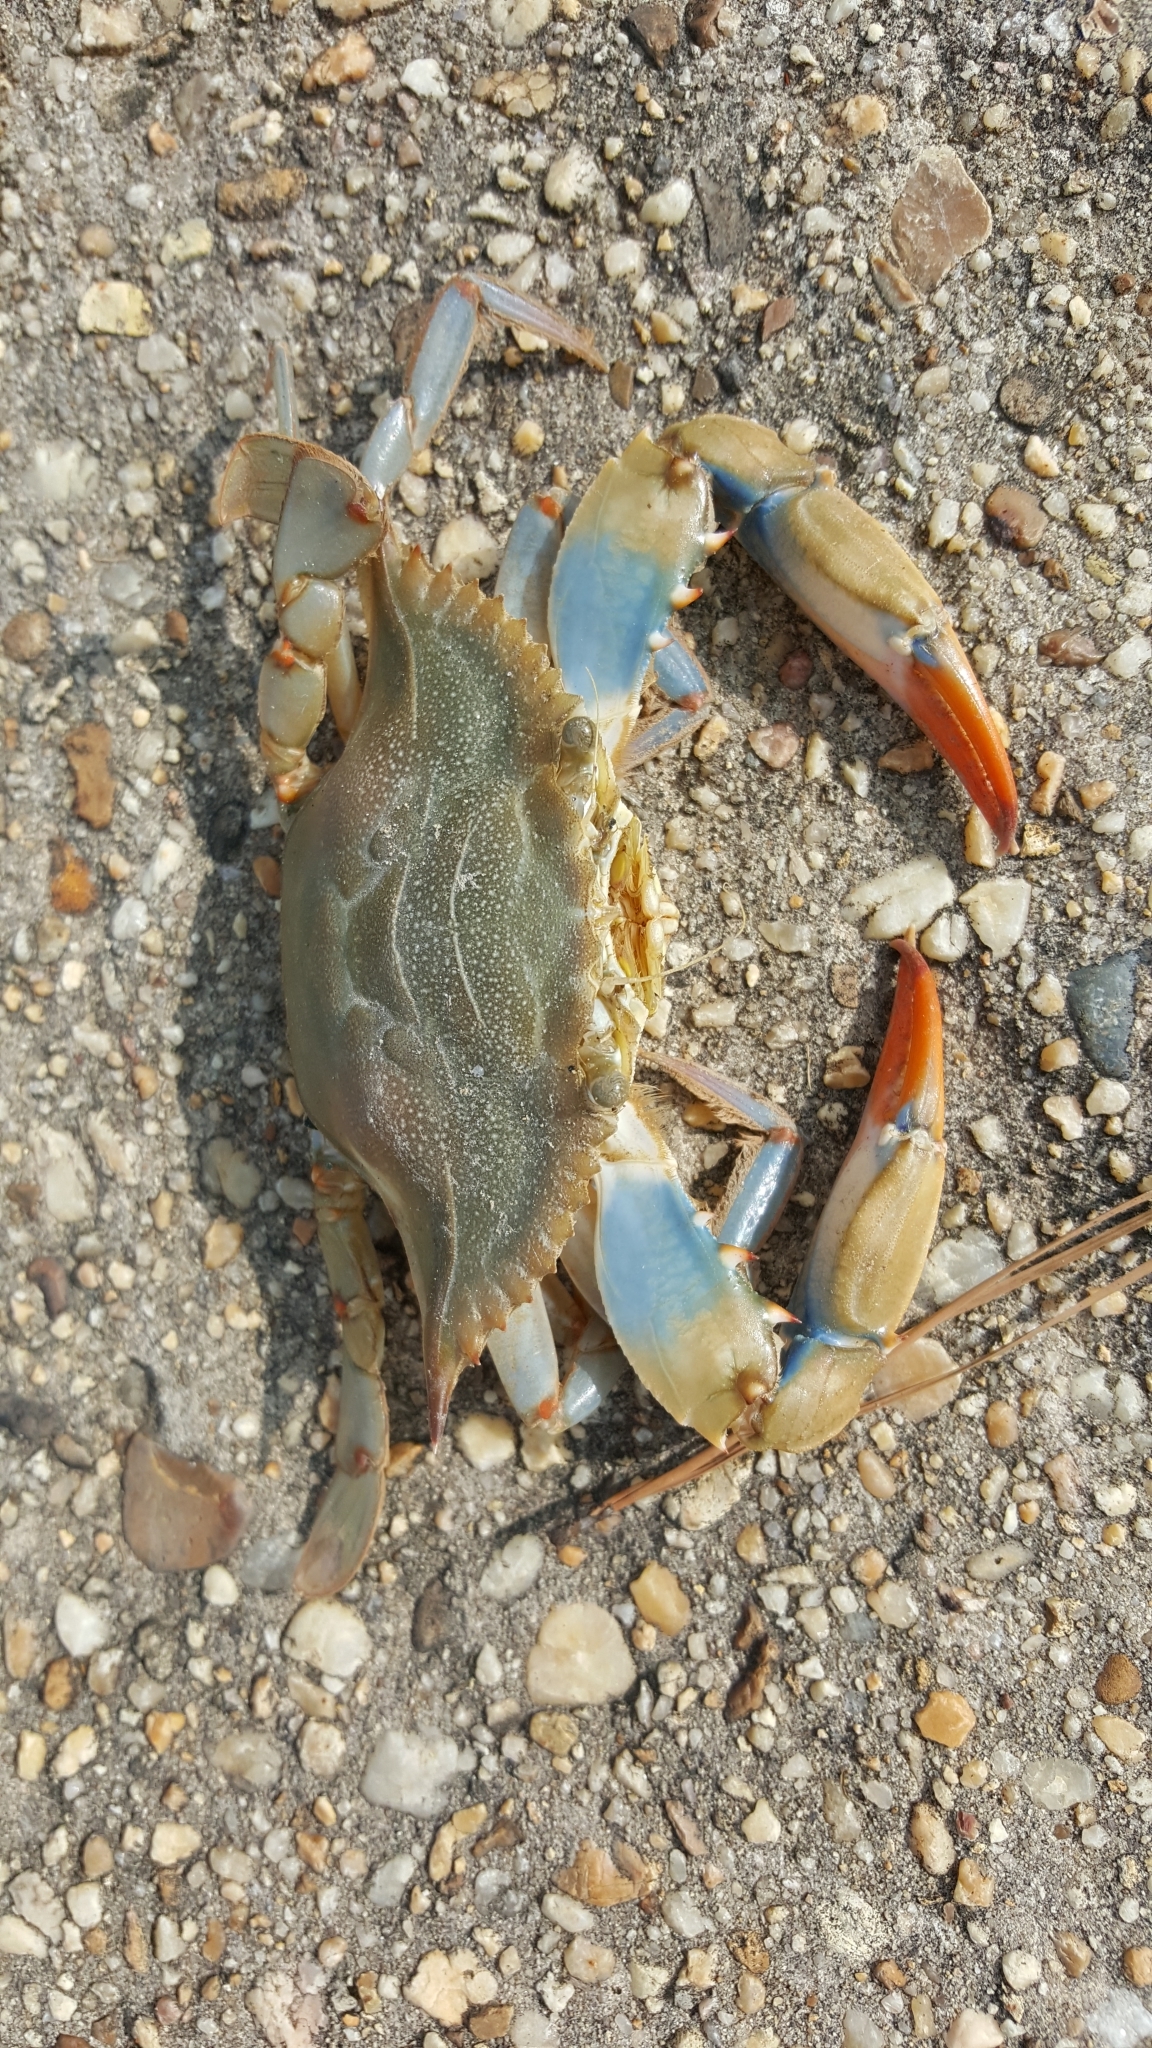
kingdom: Animalia
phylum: Arthropoda
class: Malacostraca
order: Decapoda
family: Portunidae
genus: Callinectes
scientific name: Callinectes sapidus
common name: Blue crab
